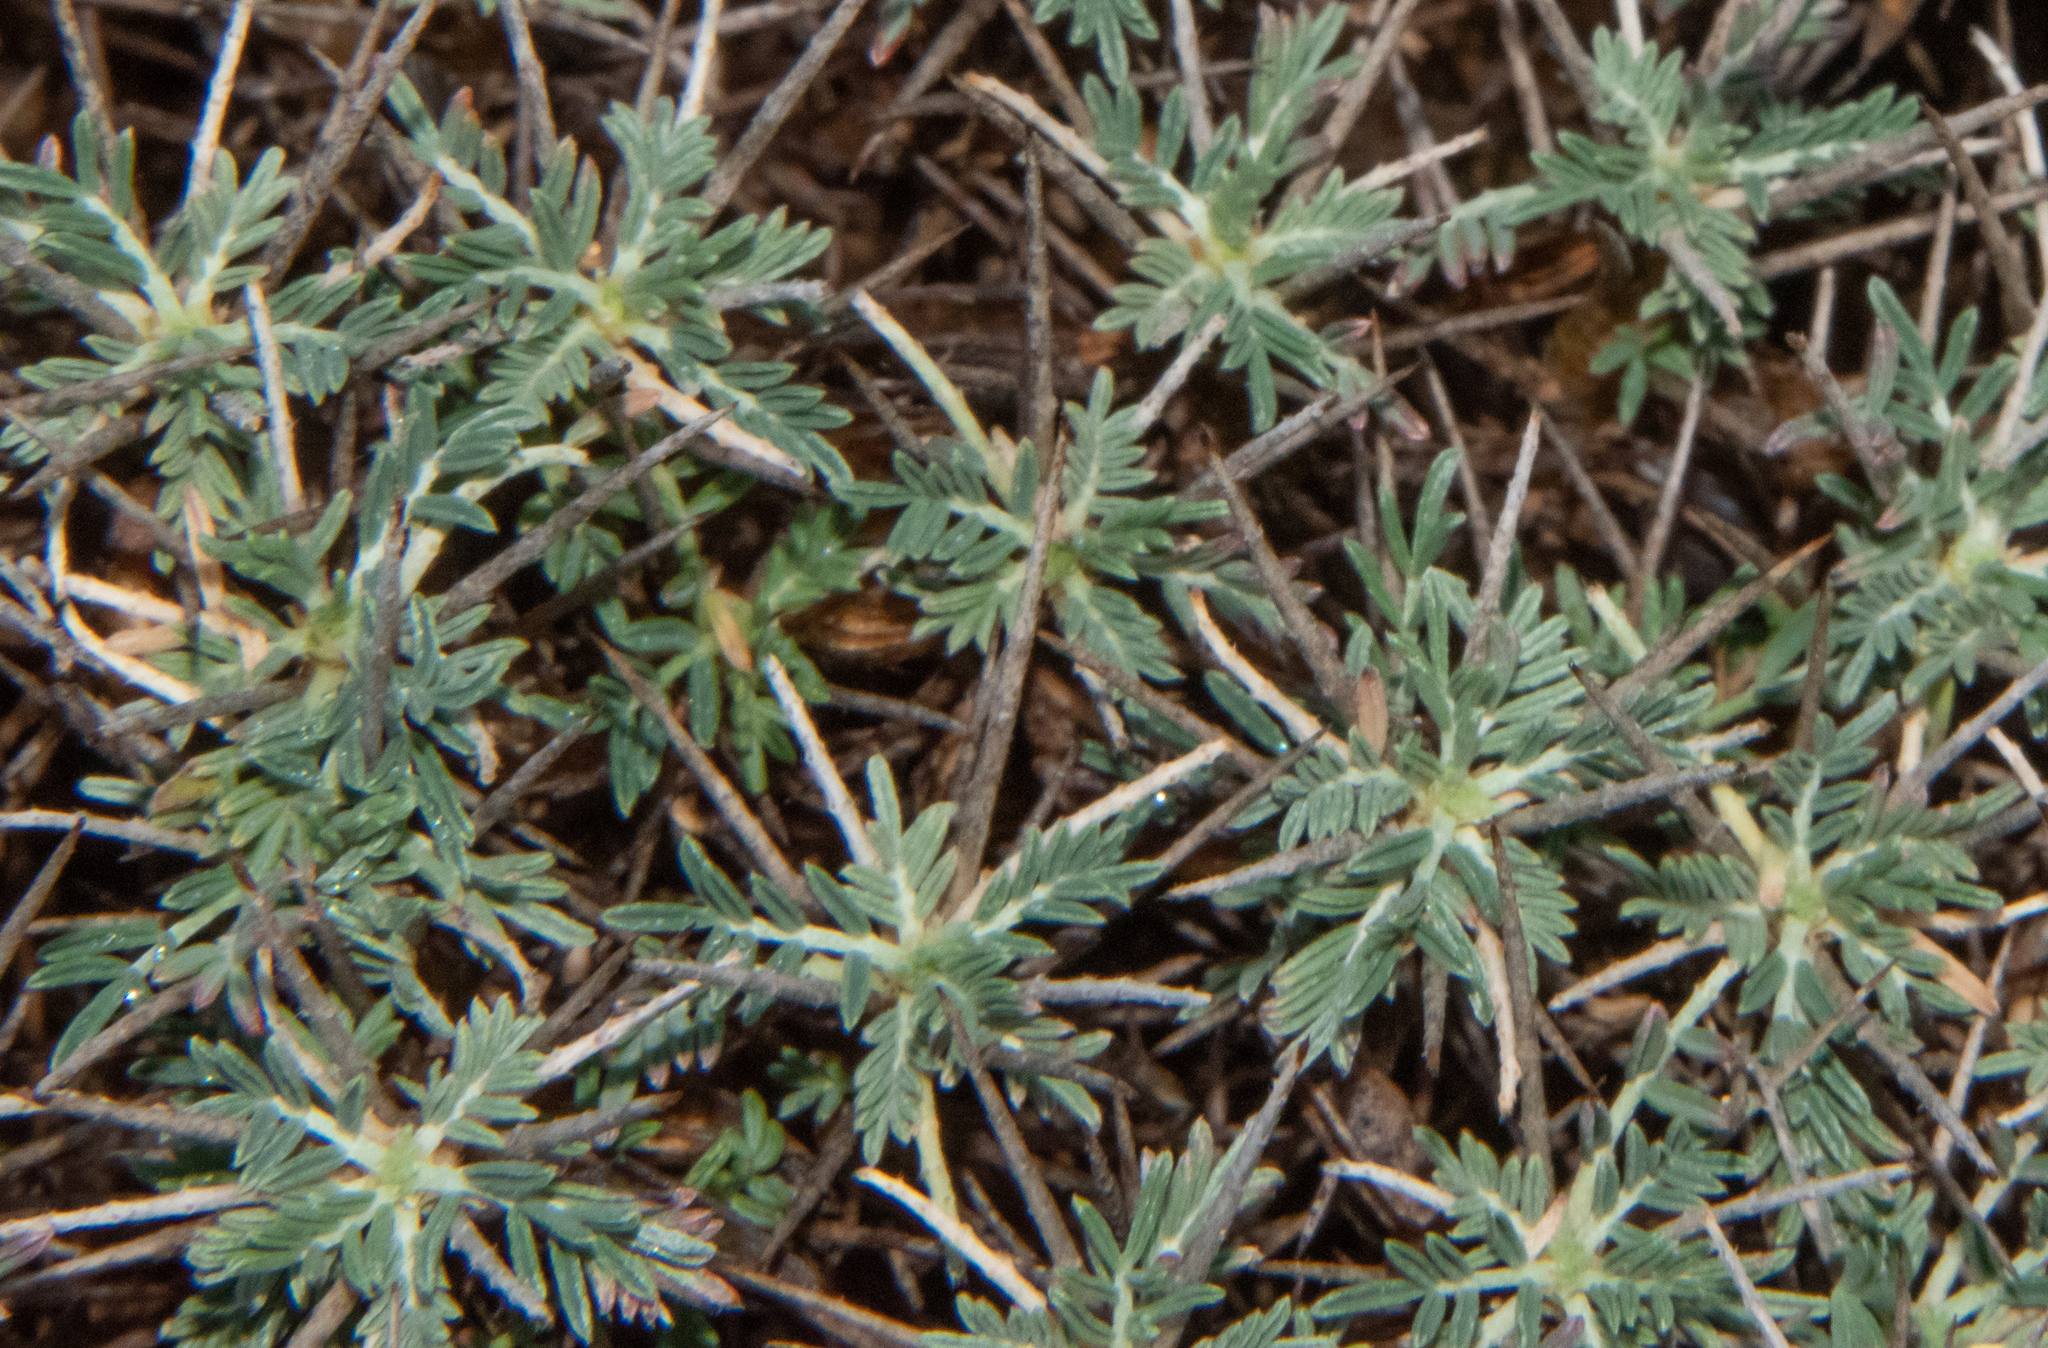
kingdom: Plantae
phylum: Tracheophyta
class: Magnoliopsida
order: Fabales
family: Fabaceae
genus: Astragalus
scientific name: Astragalus balearicus
